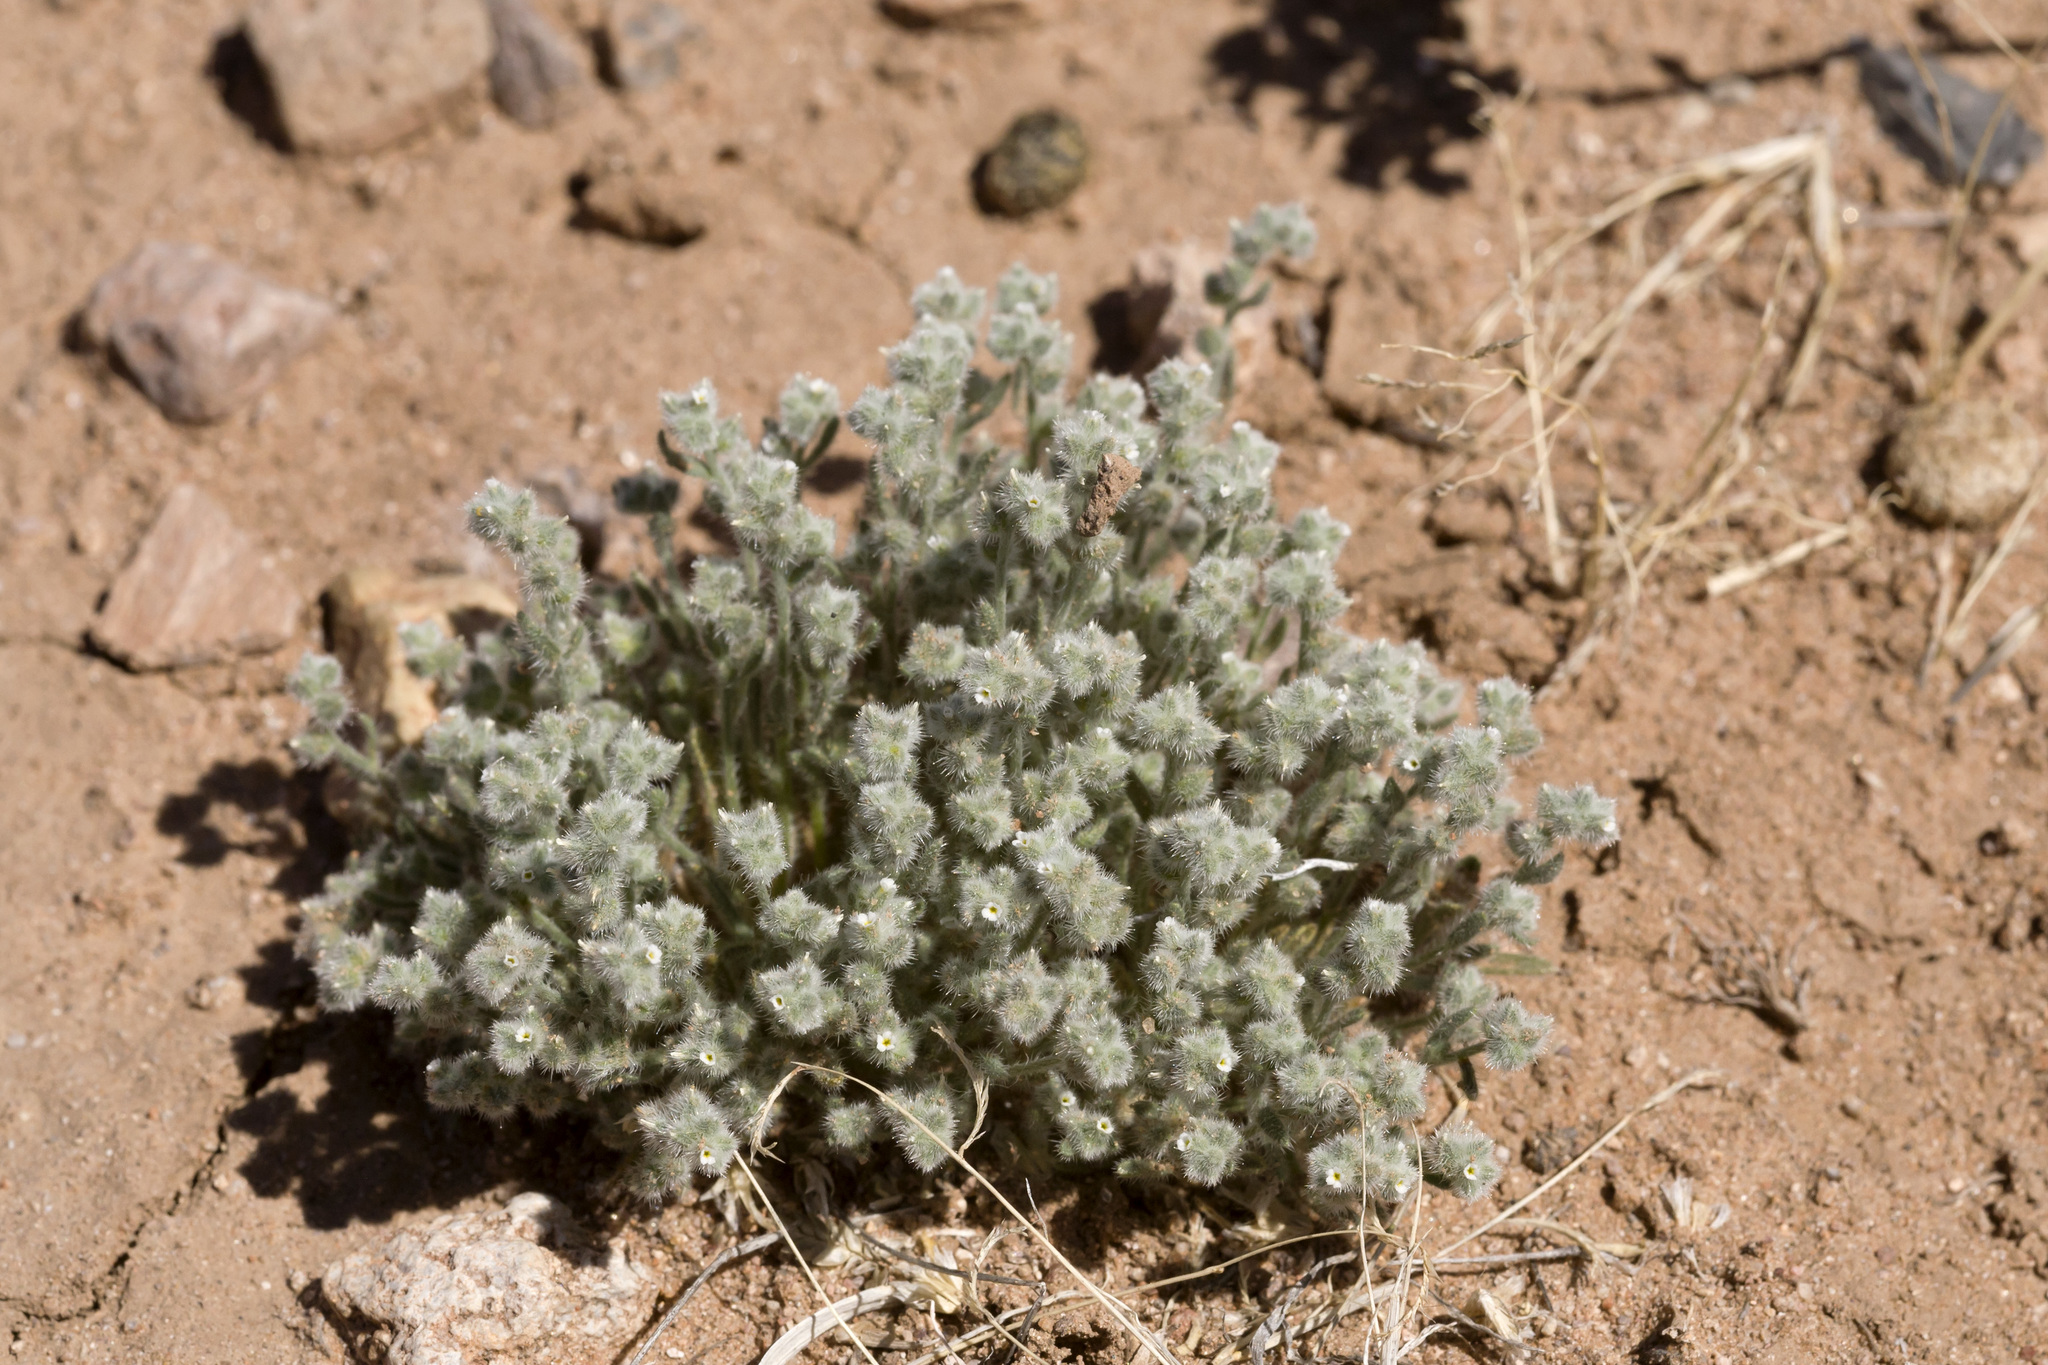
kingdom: Plantae
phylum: Tracheophyta
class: Magnoliopsida
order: Boraginales
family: Boraginaceae
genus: Johnstonella
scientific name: Johnstonella pusilla
